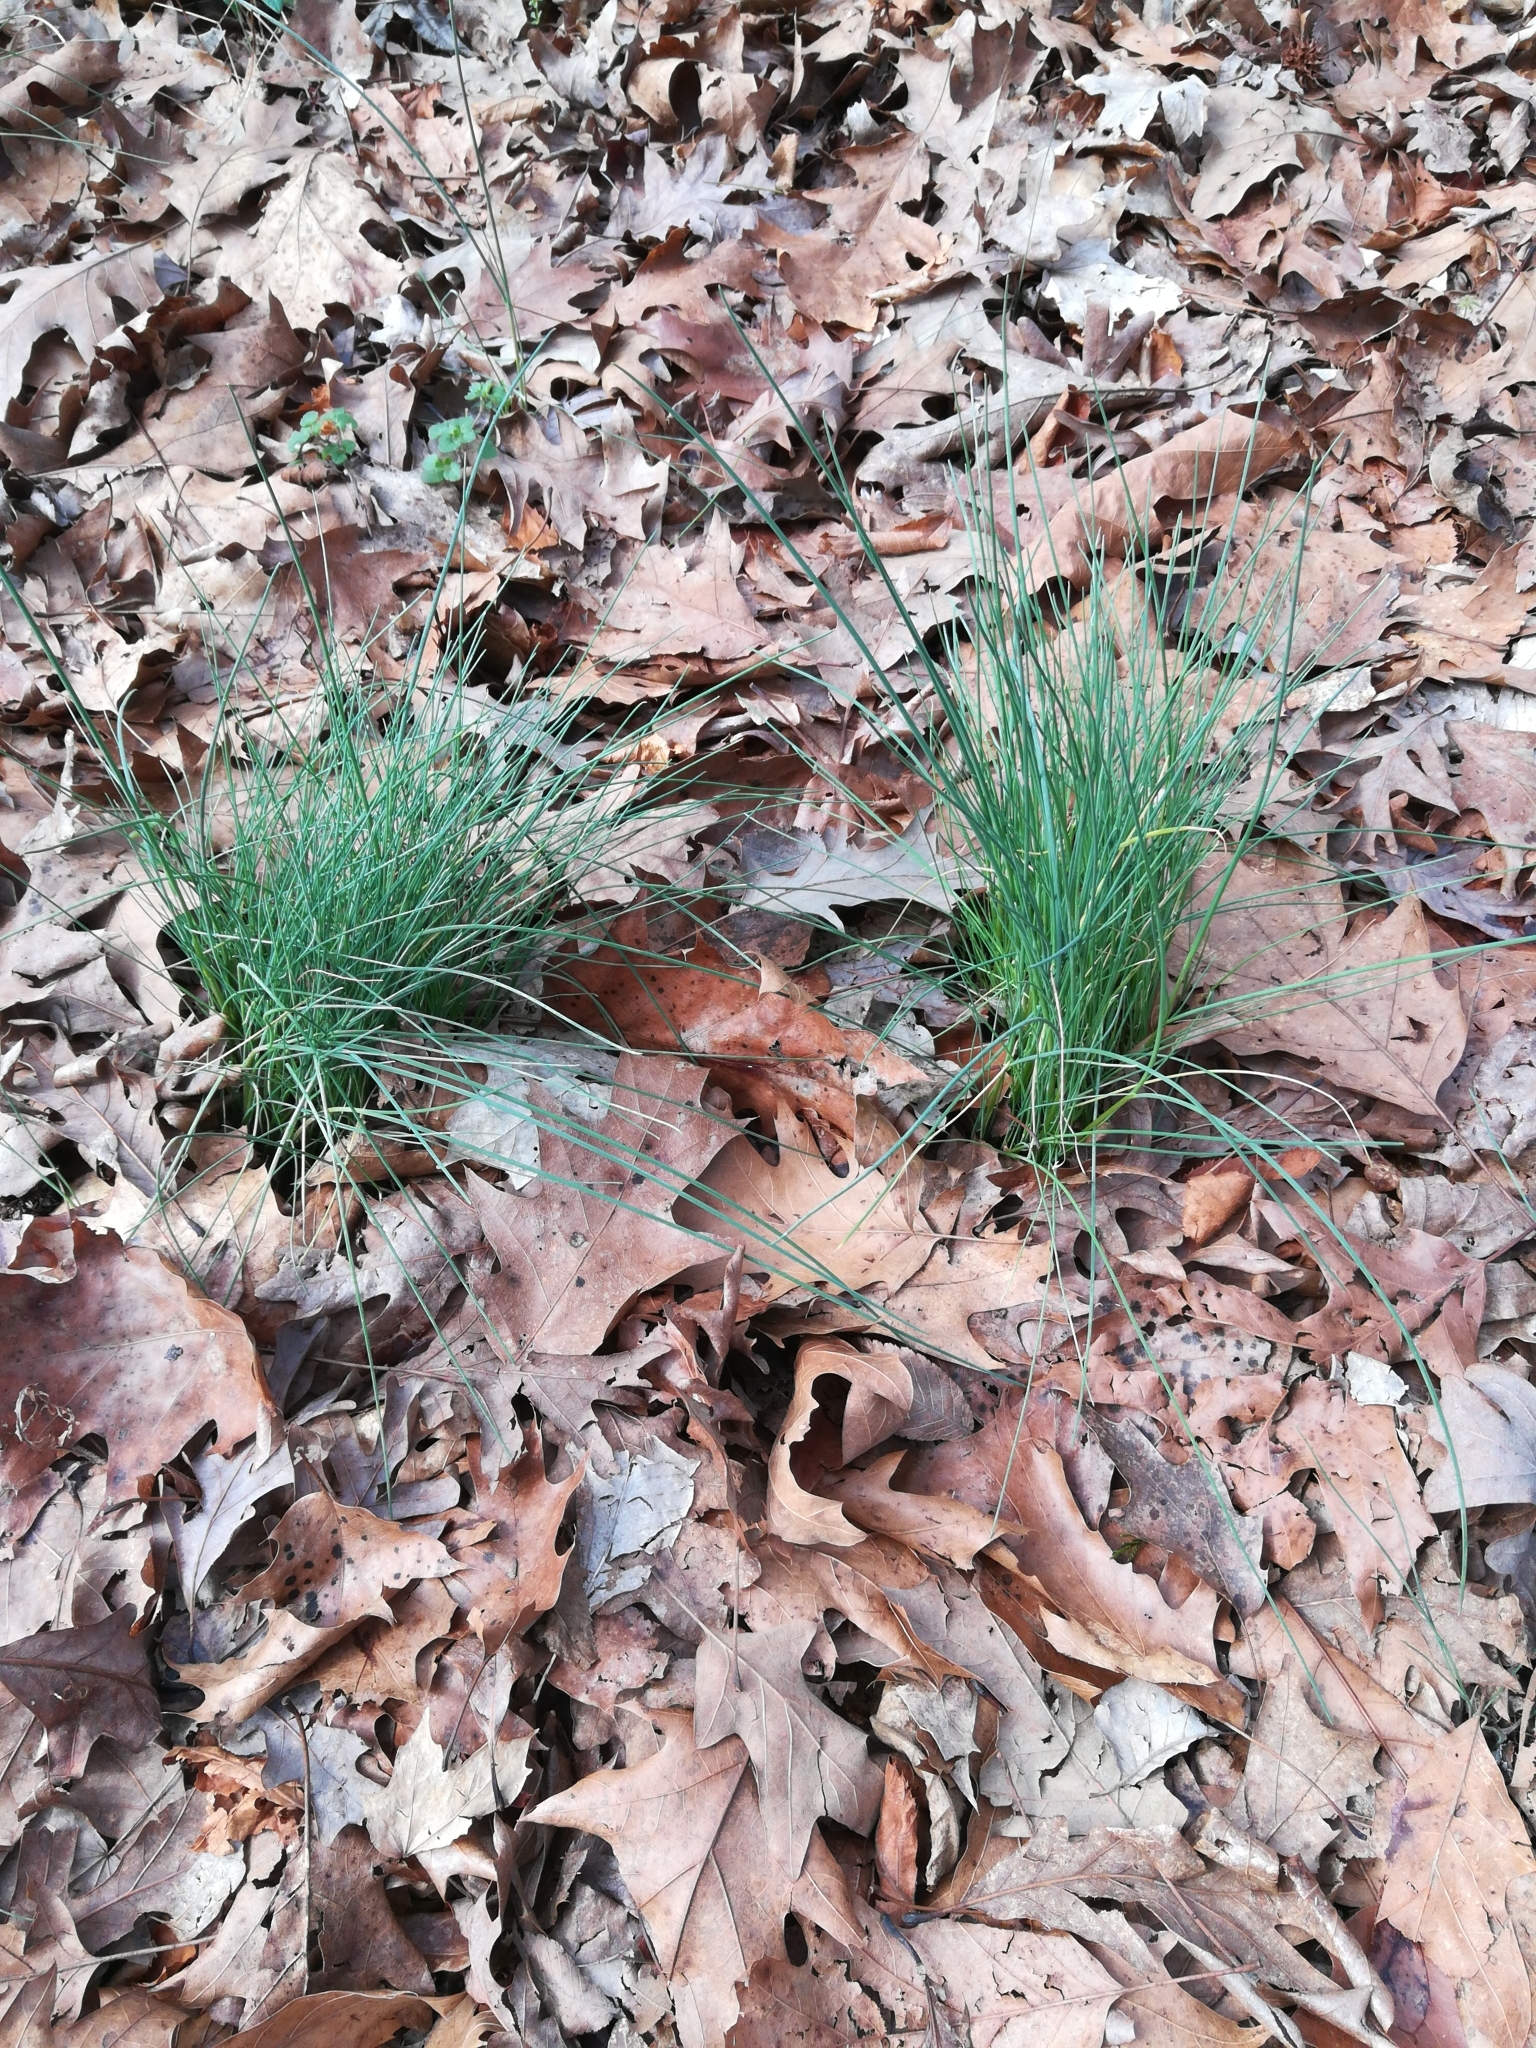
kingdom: Plantae
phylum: Tracheophyta
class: Liliopsida
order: Asparagales
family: Amaryllidaceae
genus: Allium
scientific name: Allium vineale
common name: Crow garlic
